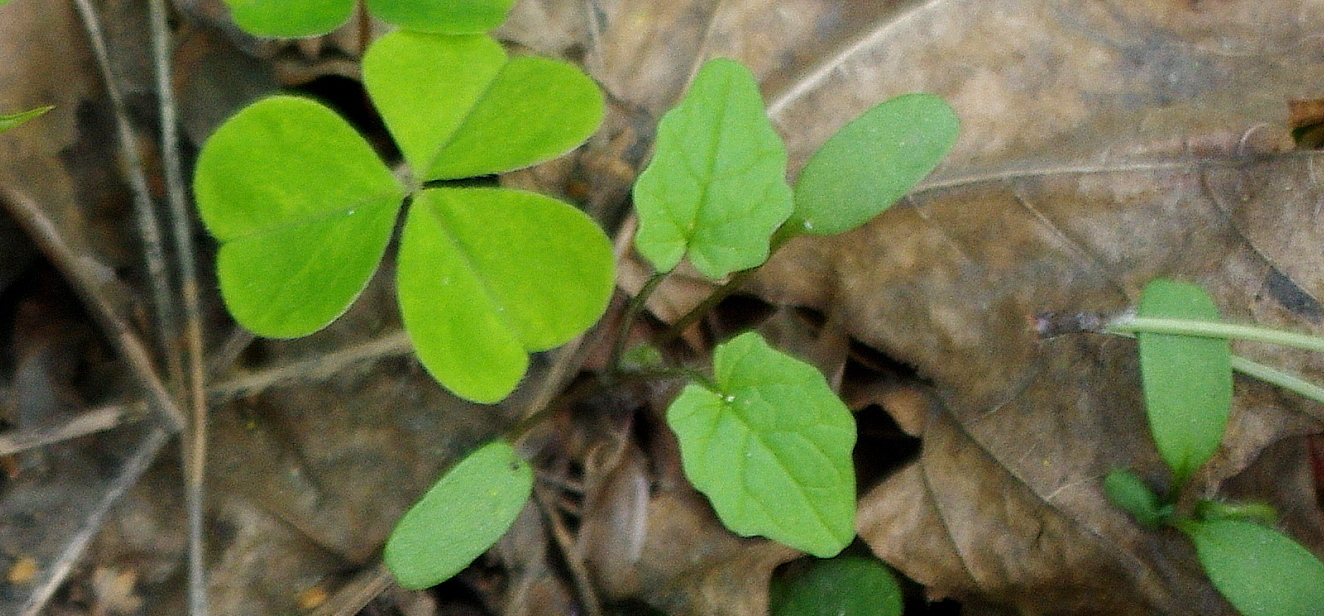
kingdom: Plantae
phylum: Tracheophyta
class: Magnoliopsida
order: Brassicales
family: Brassicaceae
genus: Alliaria
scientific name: Alliaria petiolata
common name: Garlic mustard
